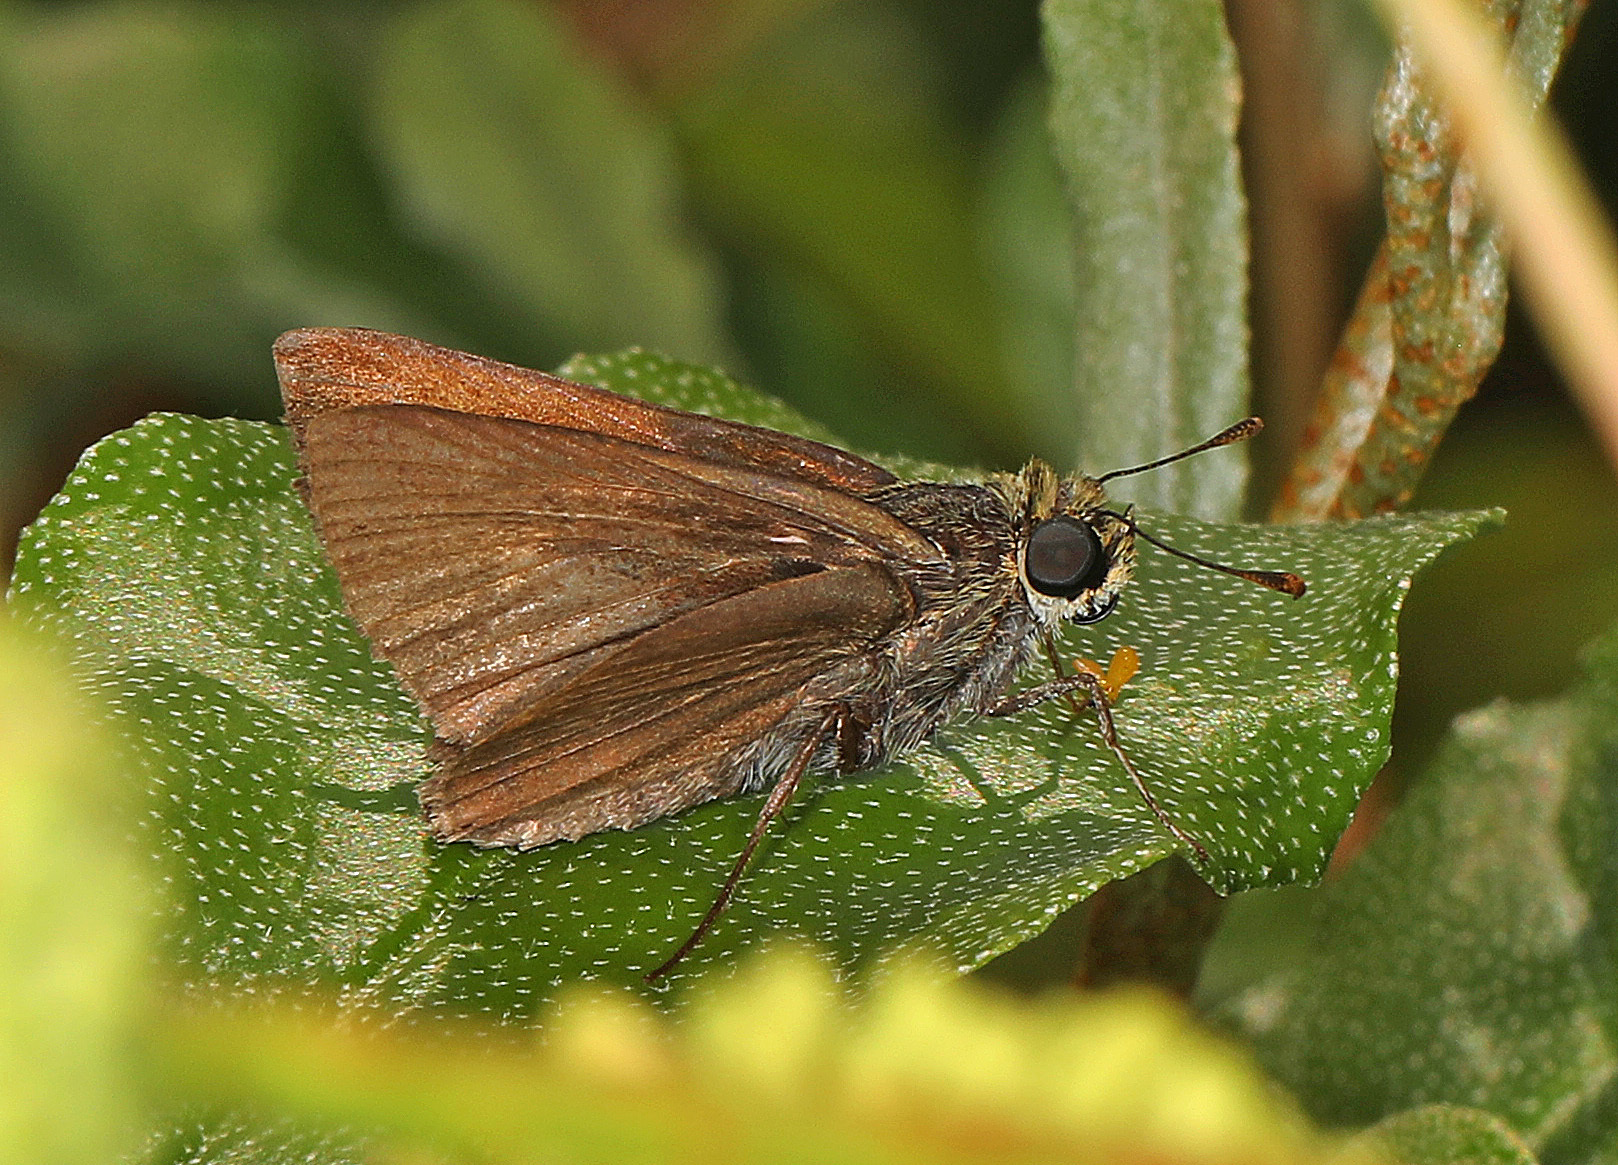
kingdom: Animalia
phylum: Arthropoda
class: Insecta
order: Lepidoptera
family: Hesperiidae
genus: Euphyes
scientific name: Euphyes vestris
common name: Dun skipper
